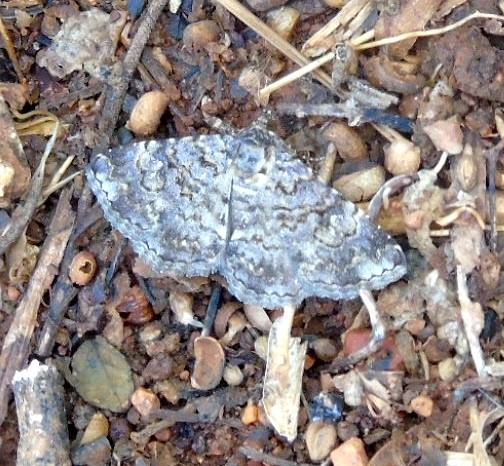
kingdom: Animalia
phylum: Arthropoda
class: Insecta
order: Lepidoptera
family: Erebidae
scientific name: Erebidae
